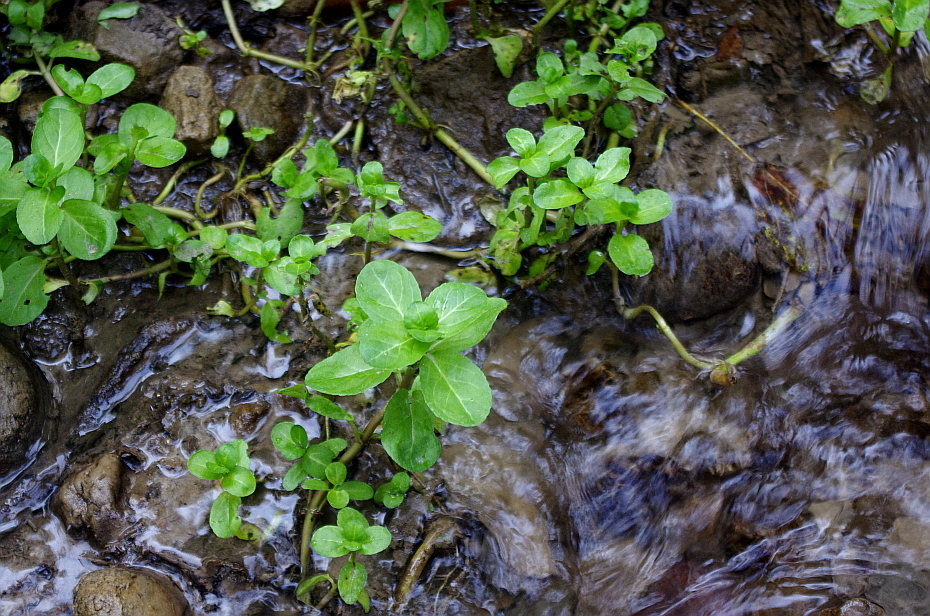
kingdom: Plantae
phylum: Tracheophyta
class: Magnoliopsida
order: Lamiales
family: Plantaginaceae
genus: Veronica
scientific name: Veronica beccabunga
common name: Brooklime
